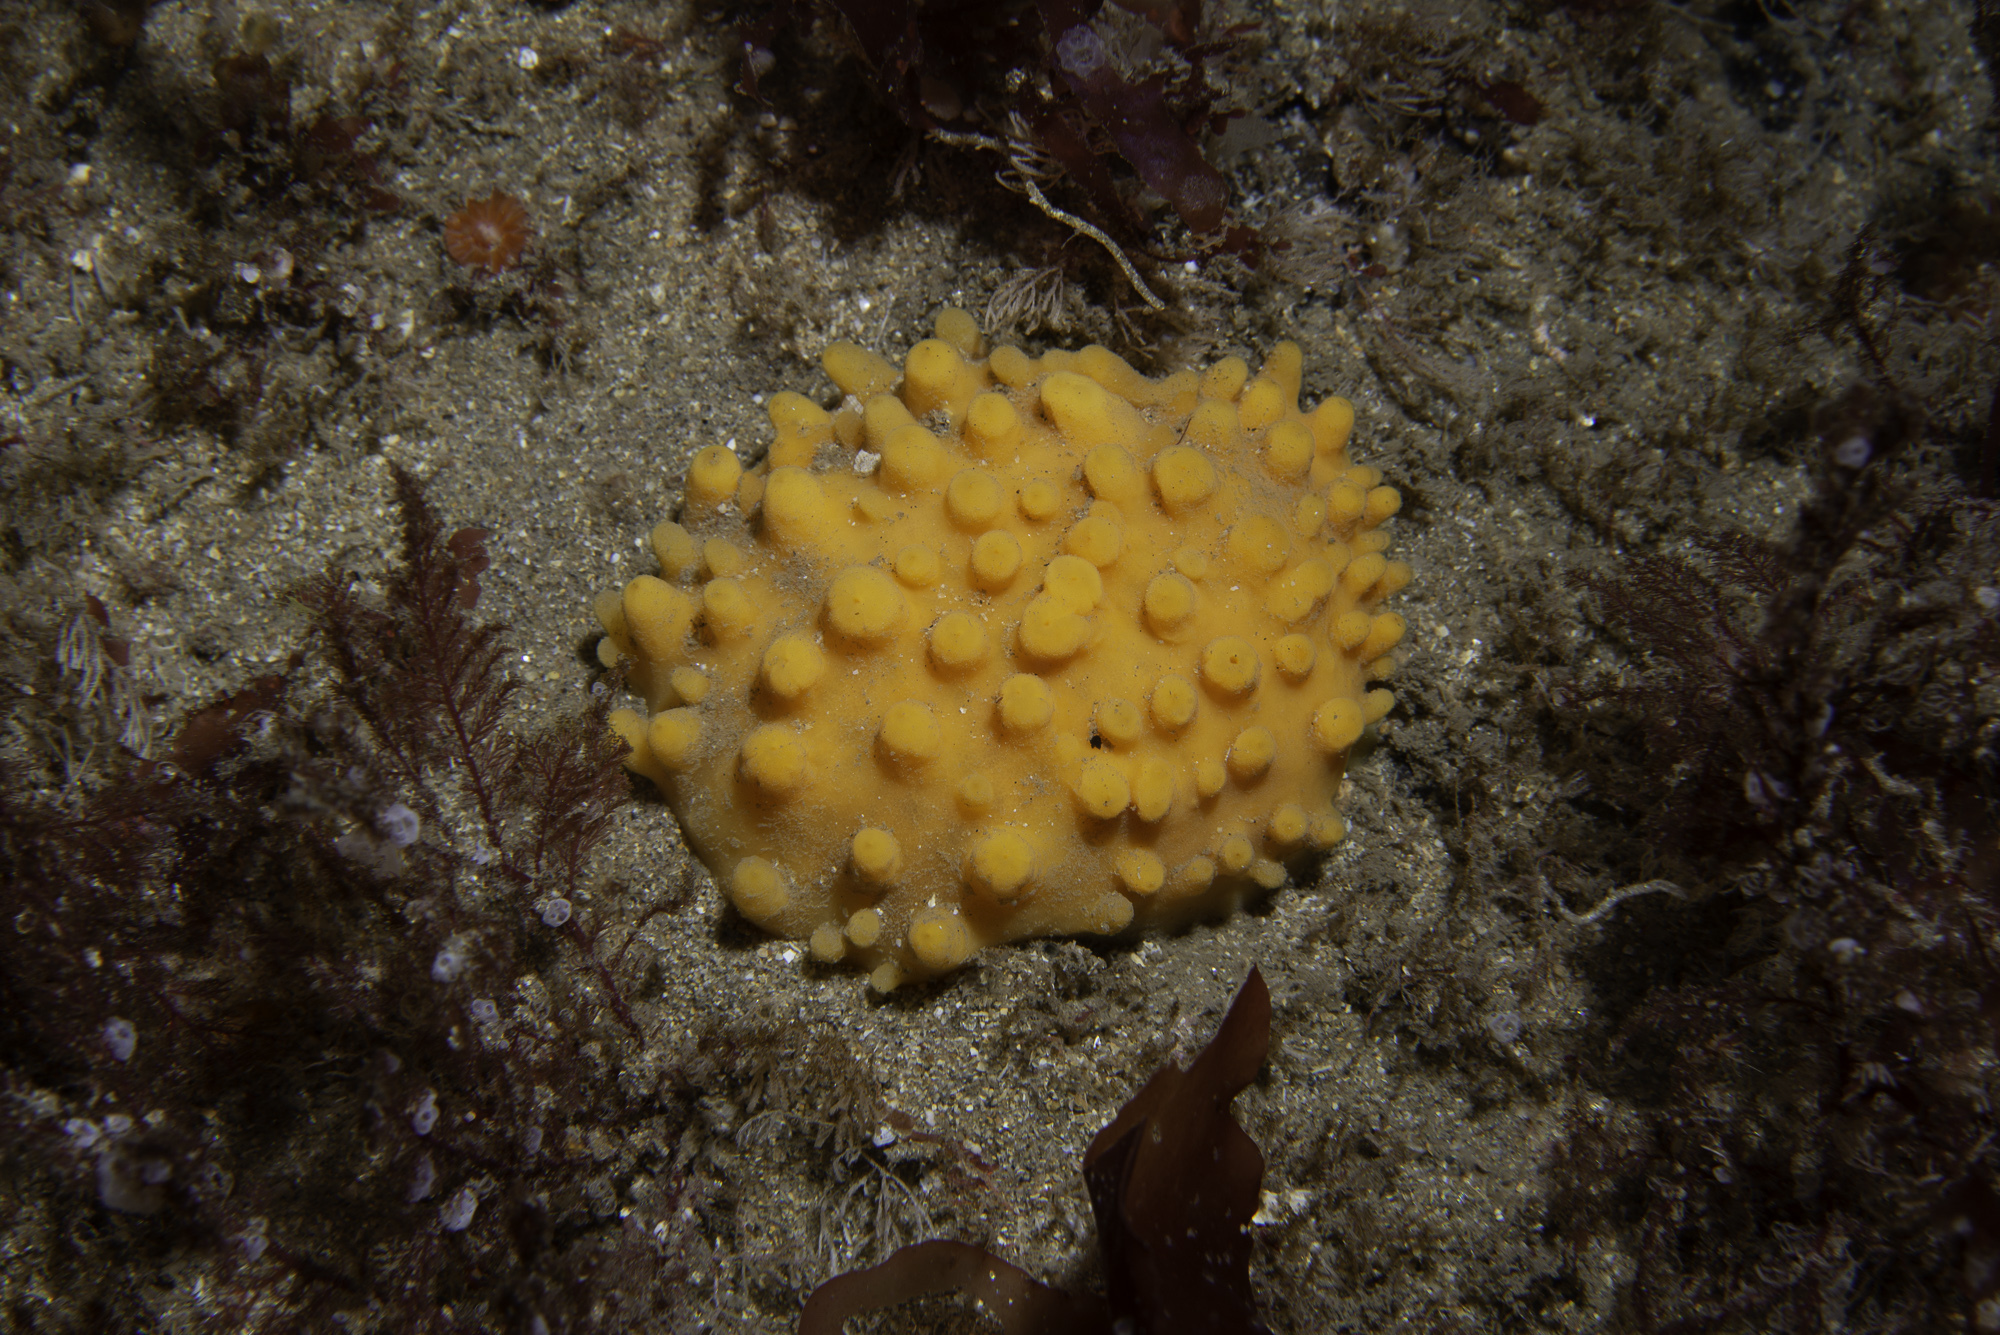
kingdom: Animalia
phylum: Porifera
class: Demospongiae
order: Polymastiida
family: Polymastiidae
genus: Polymastia
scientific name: Polymastia boletiformis
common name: Massive horny sponge
